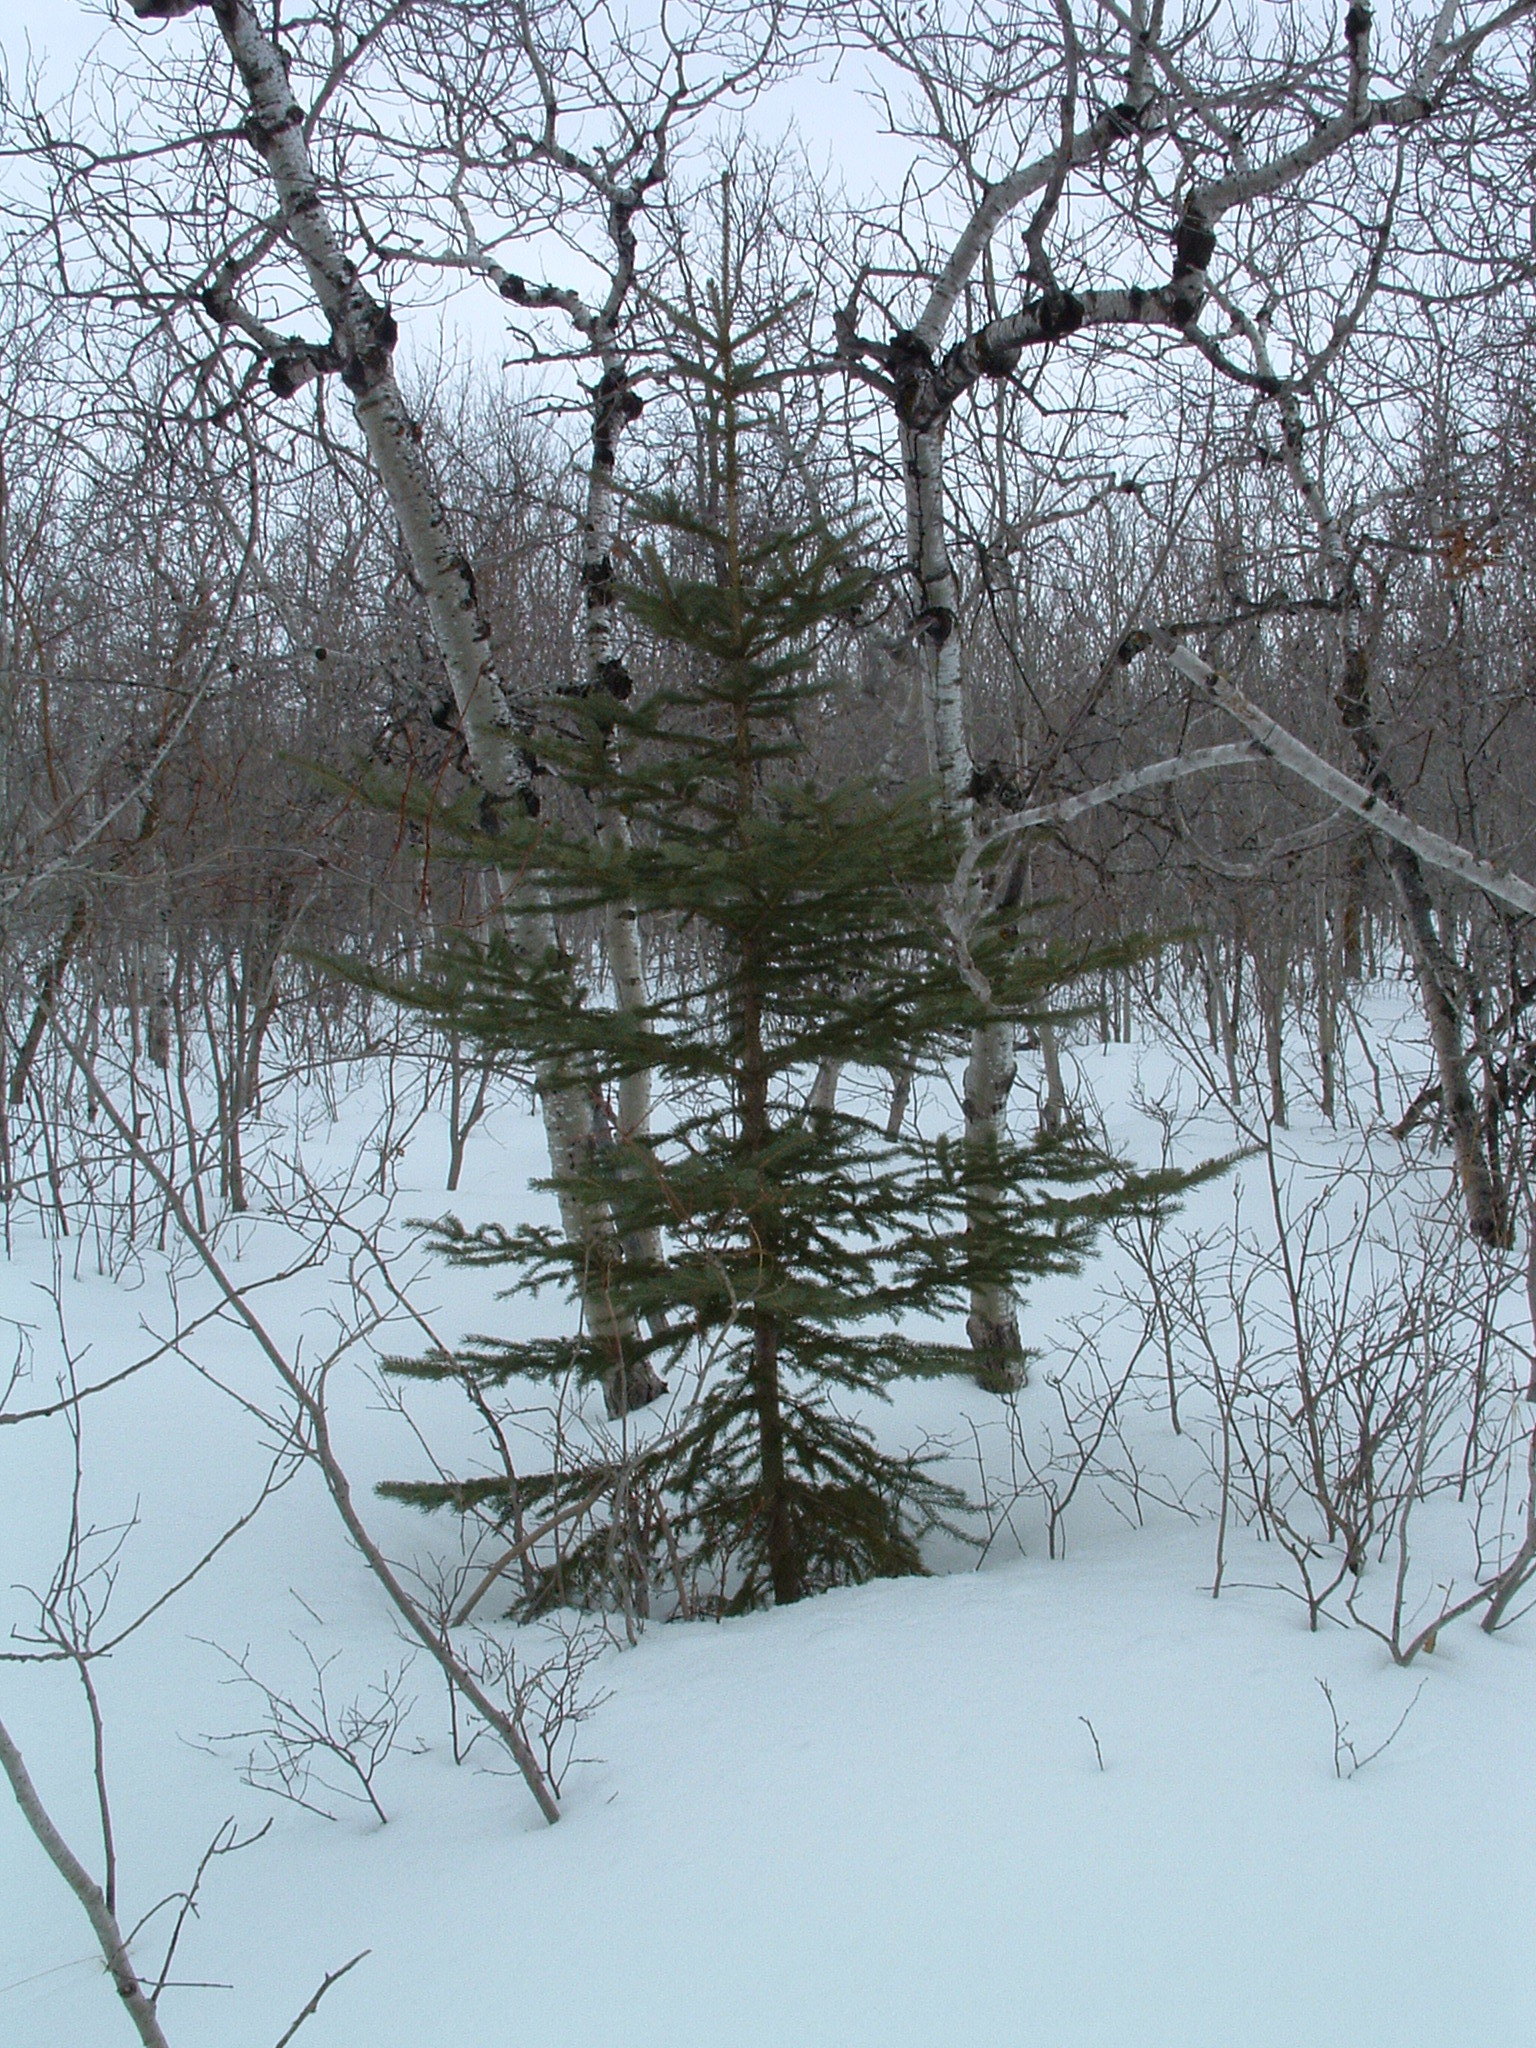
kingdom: Plantae
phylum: Tracheophyta
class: Pinopsida
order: Pinales
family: Pinaceae
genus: Picea
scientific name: Picea glauca
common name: White spruce
